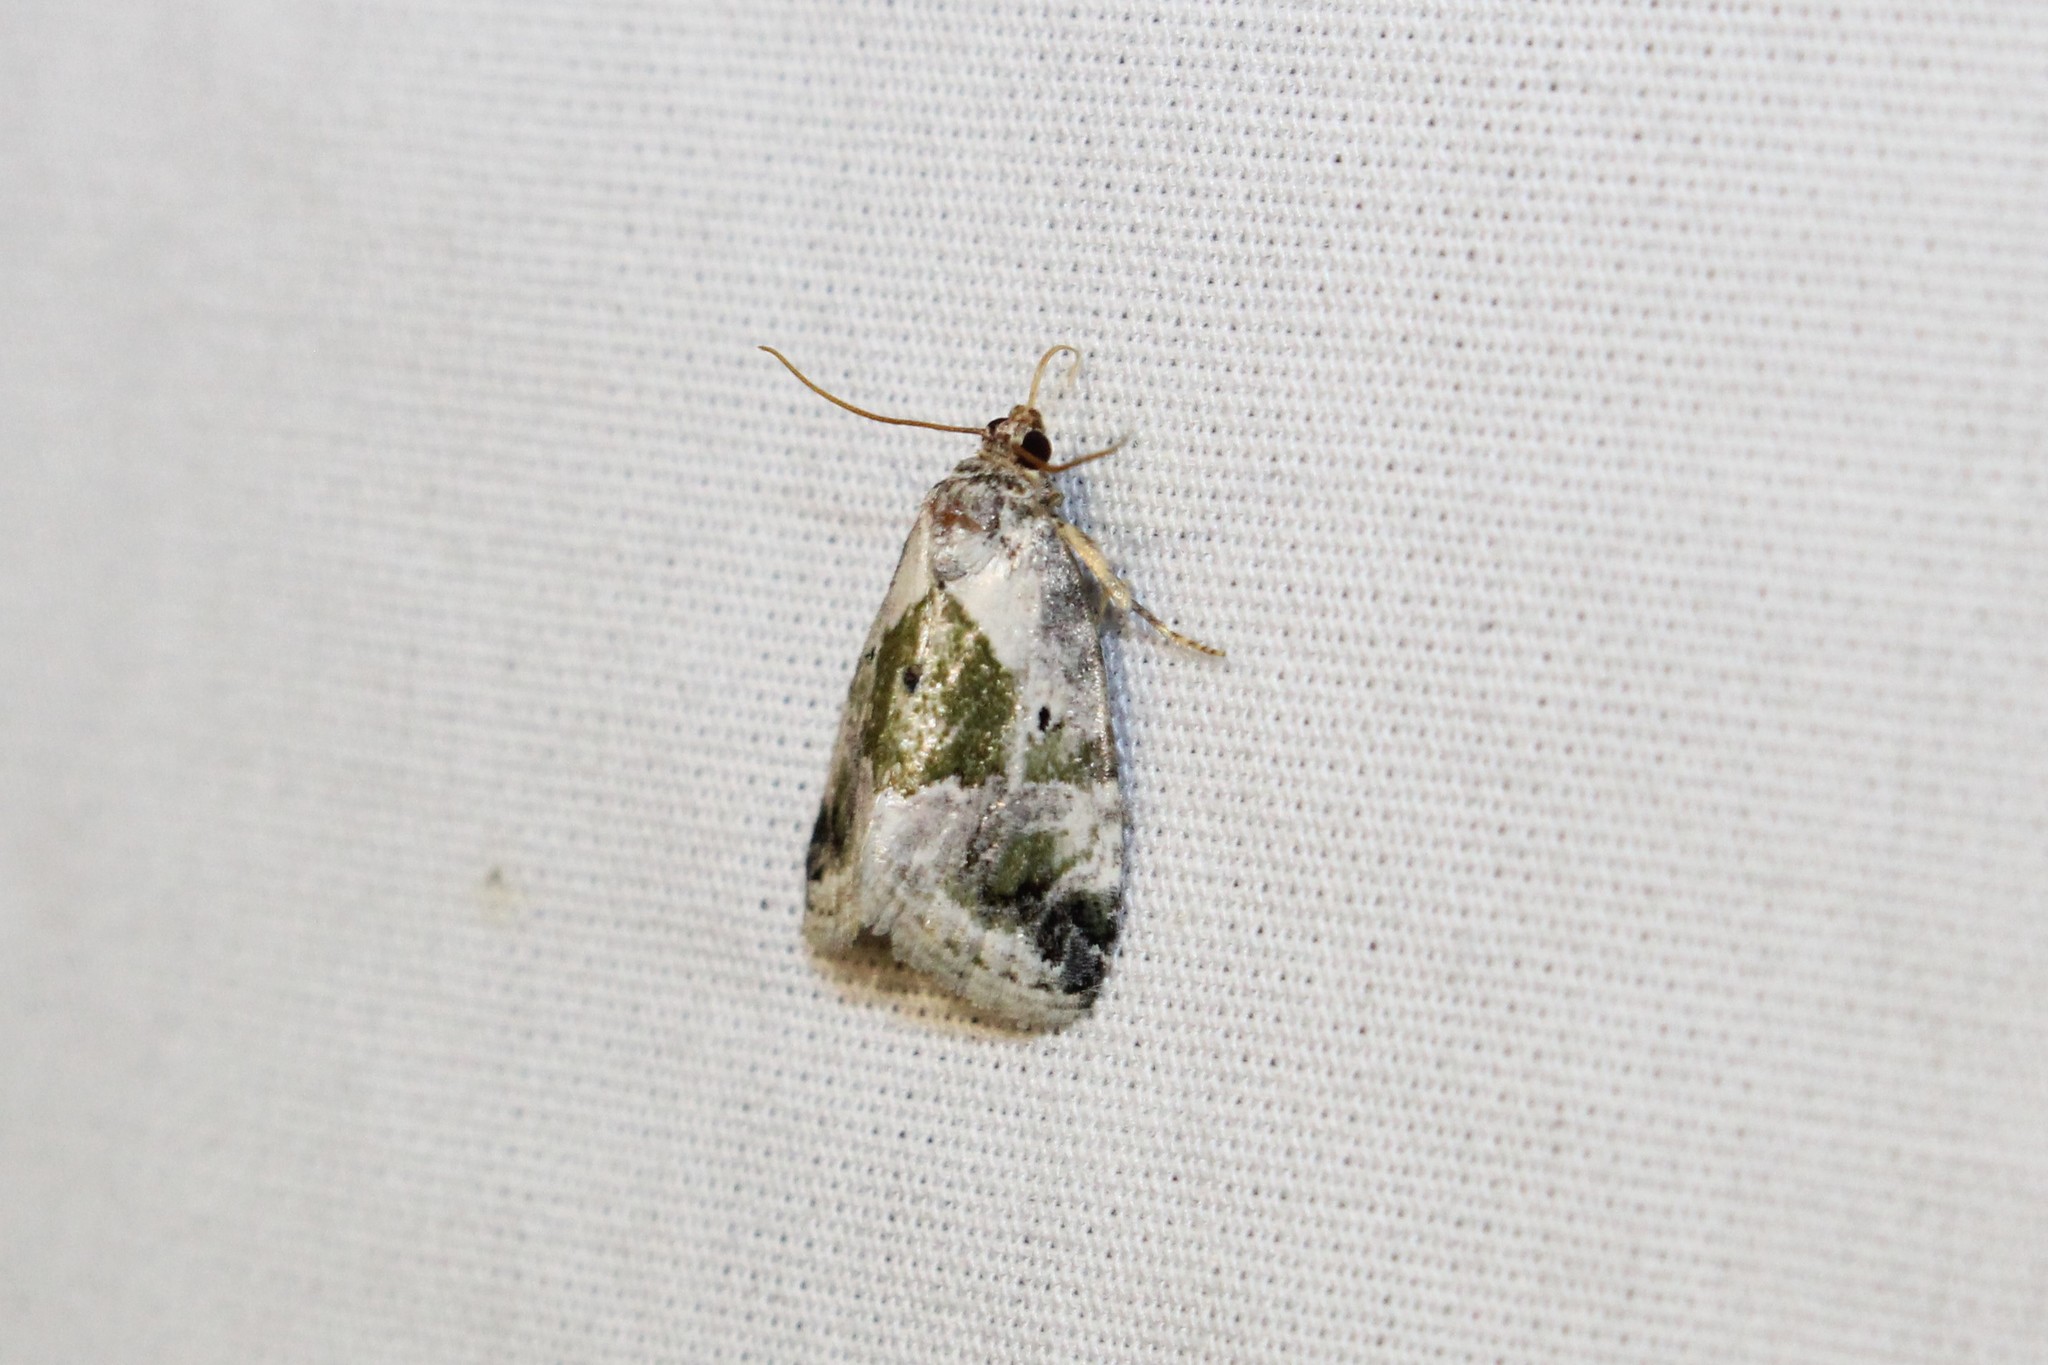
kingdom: Animalia
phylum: Arthropoda
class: Insecta
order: Lepidoptera
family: Noctuidae
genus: Maliattha
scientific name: Maliattha synochitis
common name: Black-dotted glyph
